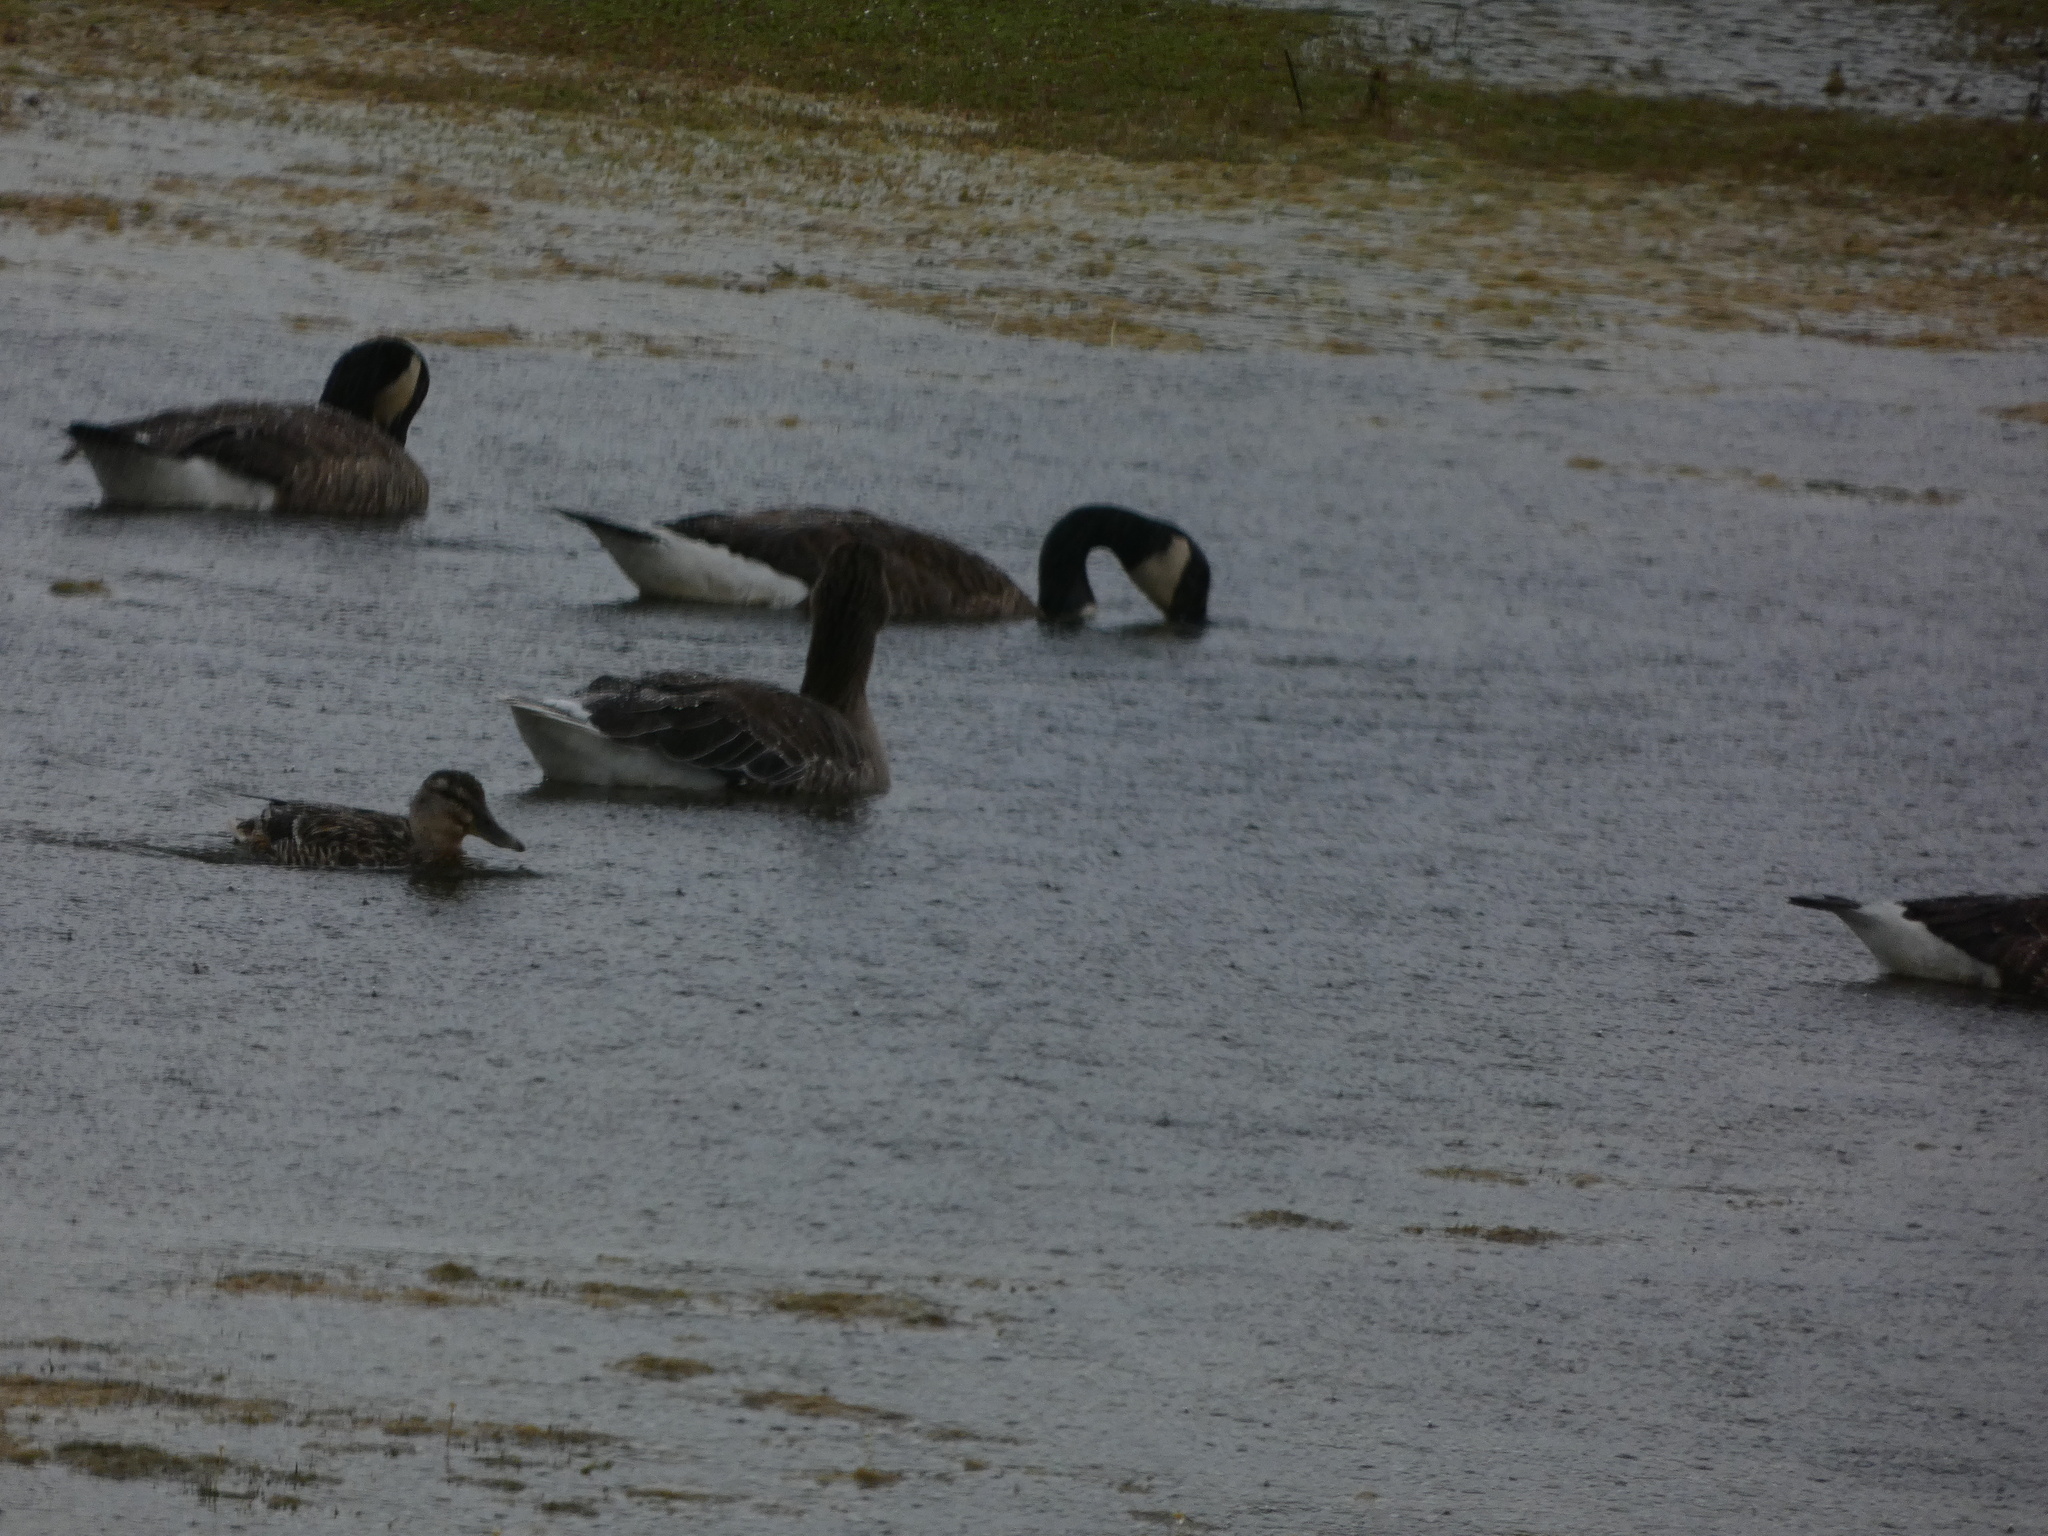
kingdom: Animalia
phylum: Chordata
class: Aves
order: Anseriformes
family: Anatidae
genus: Branta
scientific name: Branta canadensis
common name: Canada goose
